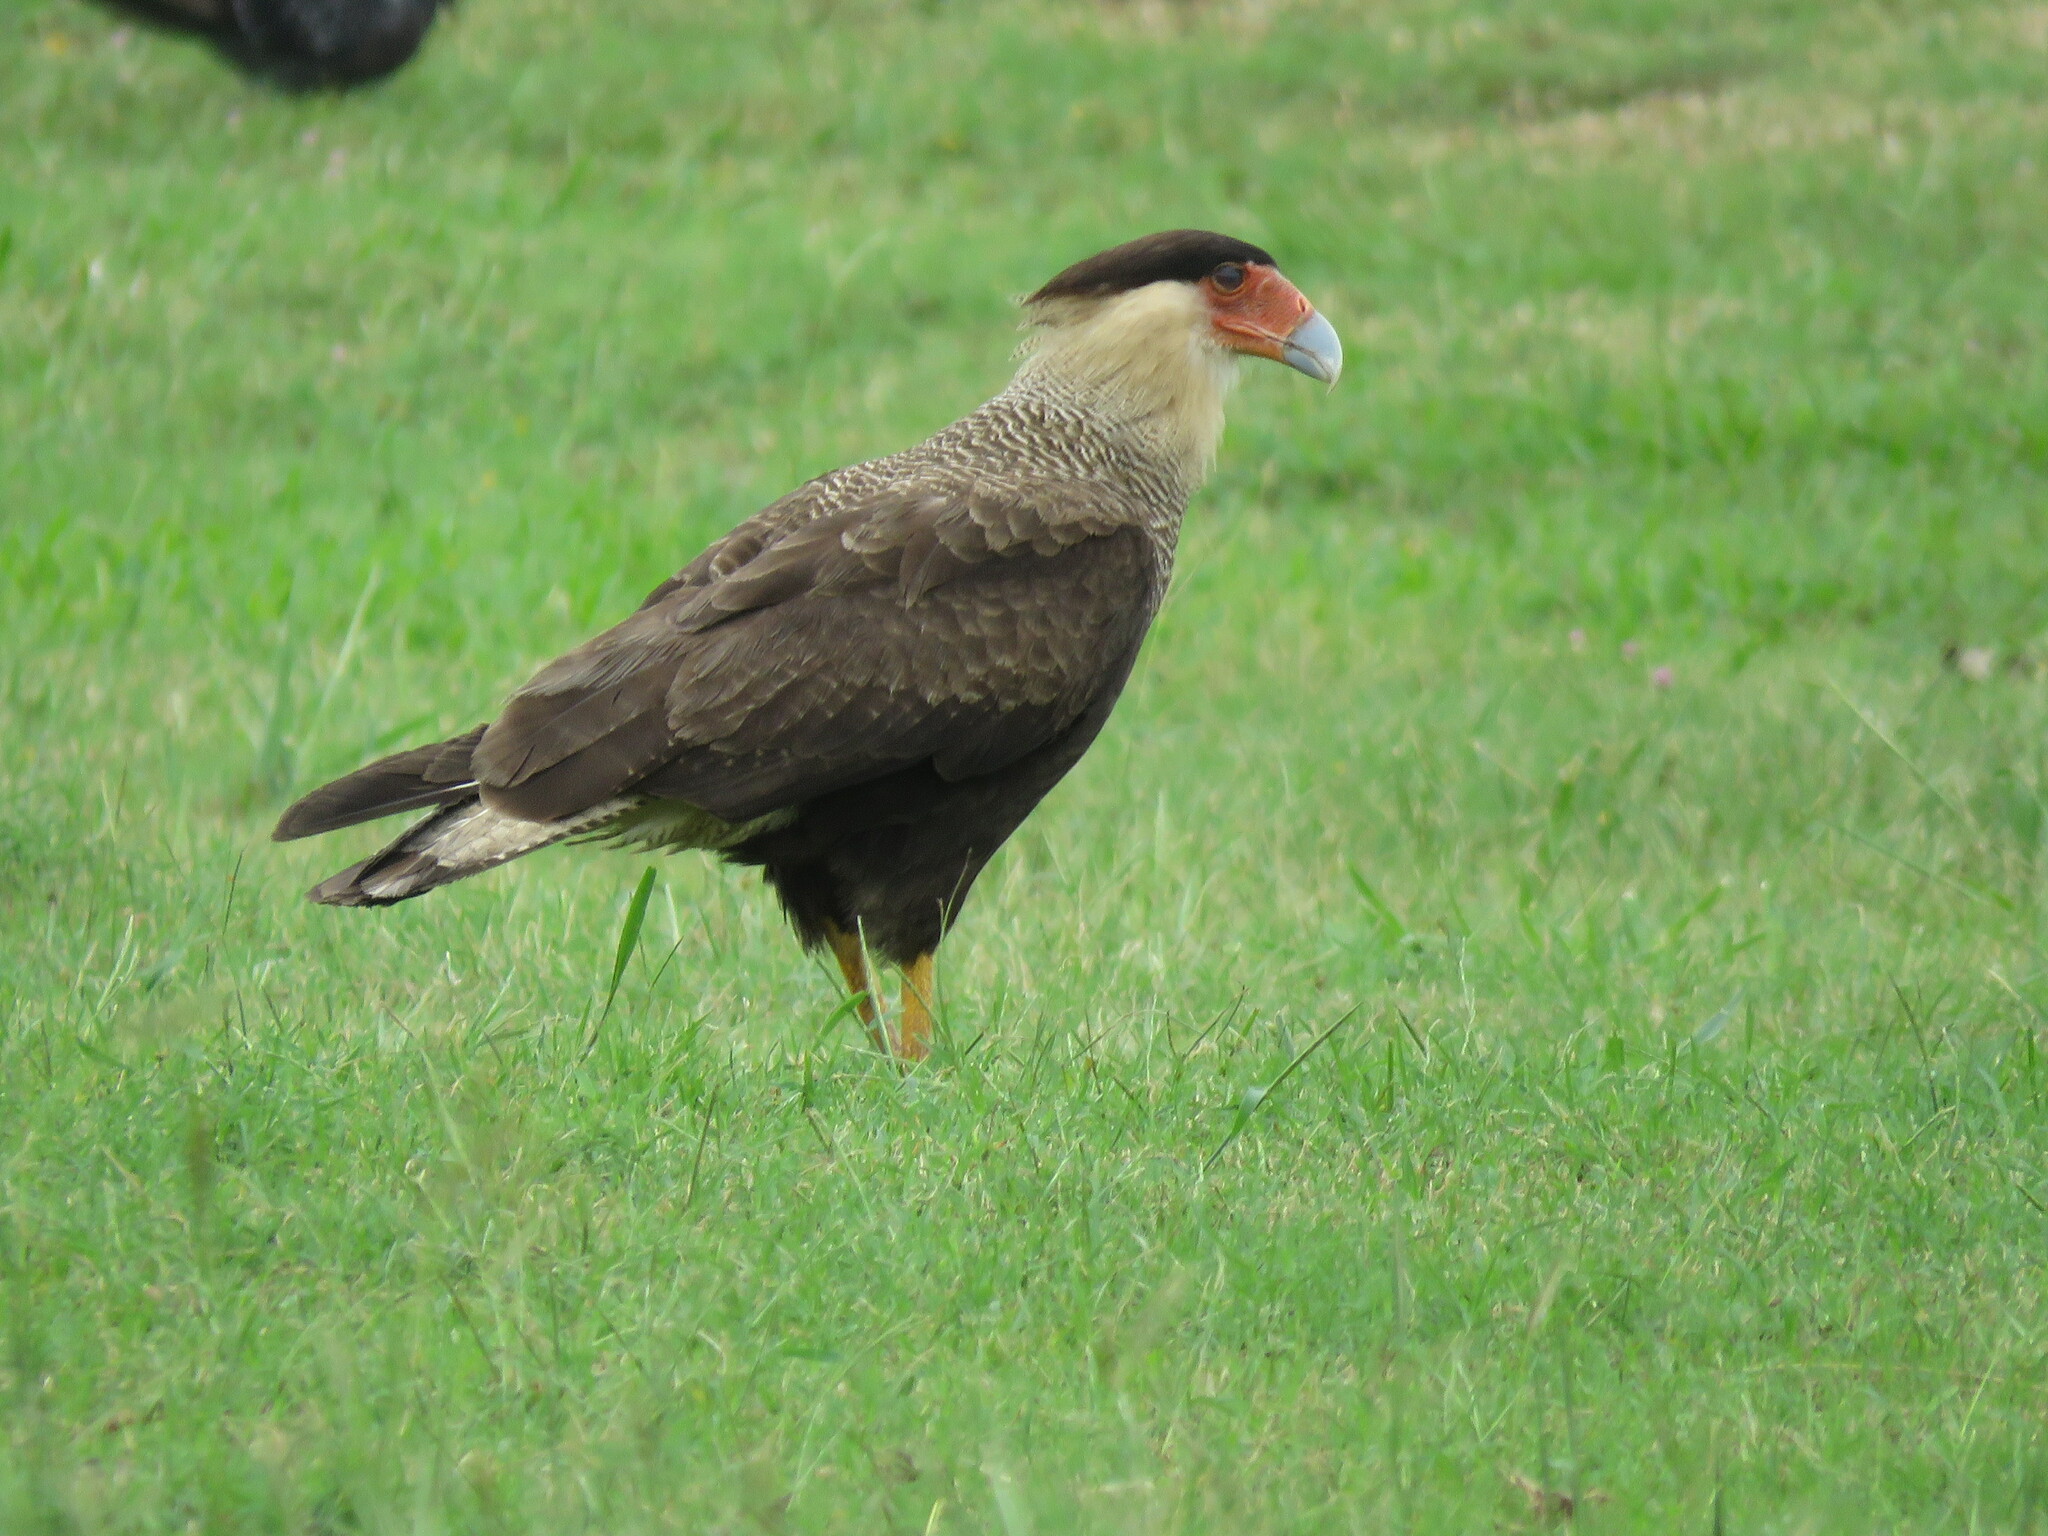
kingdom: Animalia
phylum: Chordata
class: Aves
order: Falconiformes
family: Falconidae
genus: Caracara
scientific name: Caracara plancus
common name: Southern caracara
